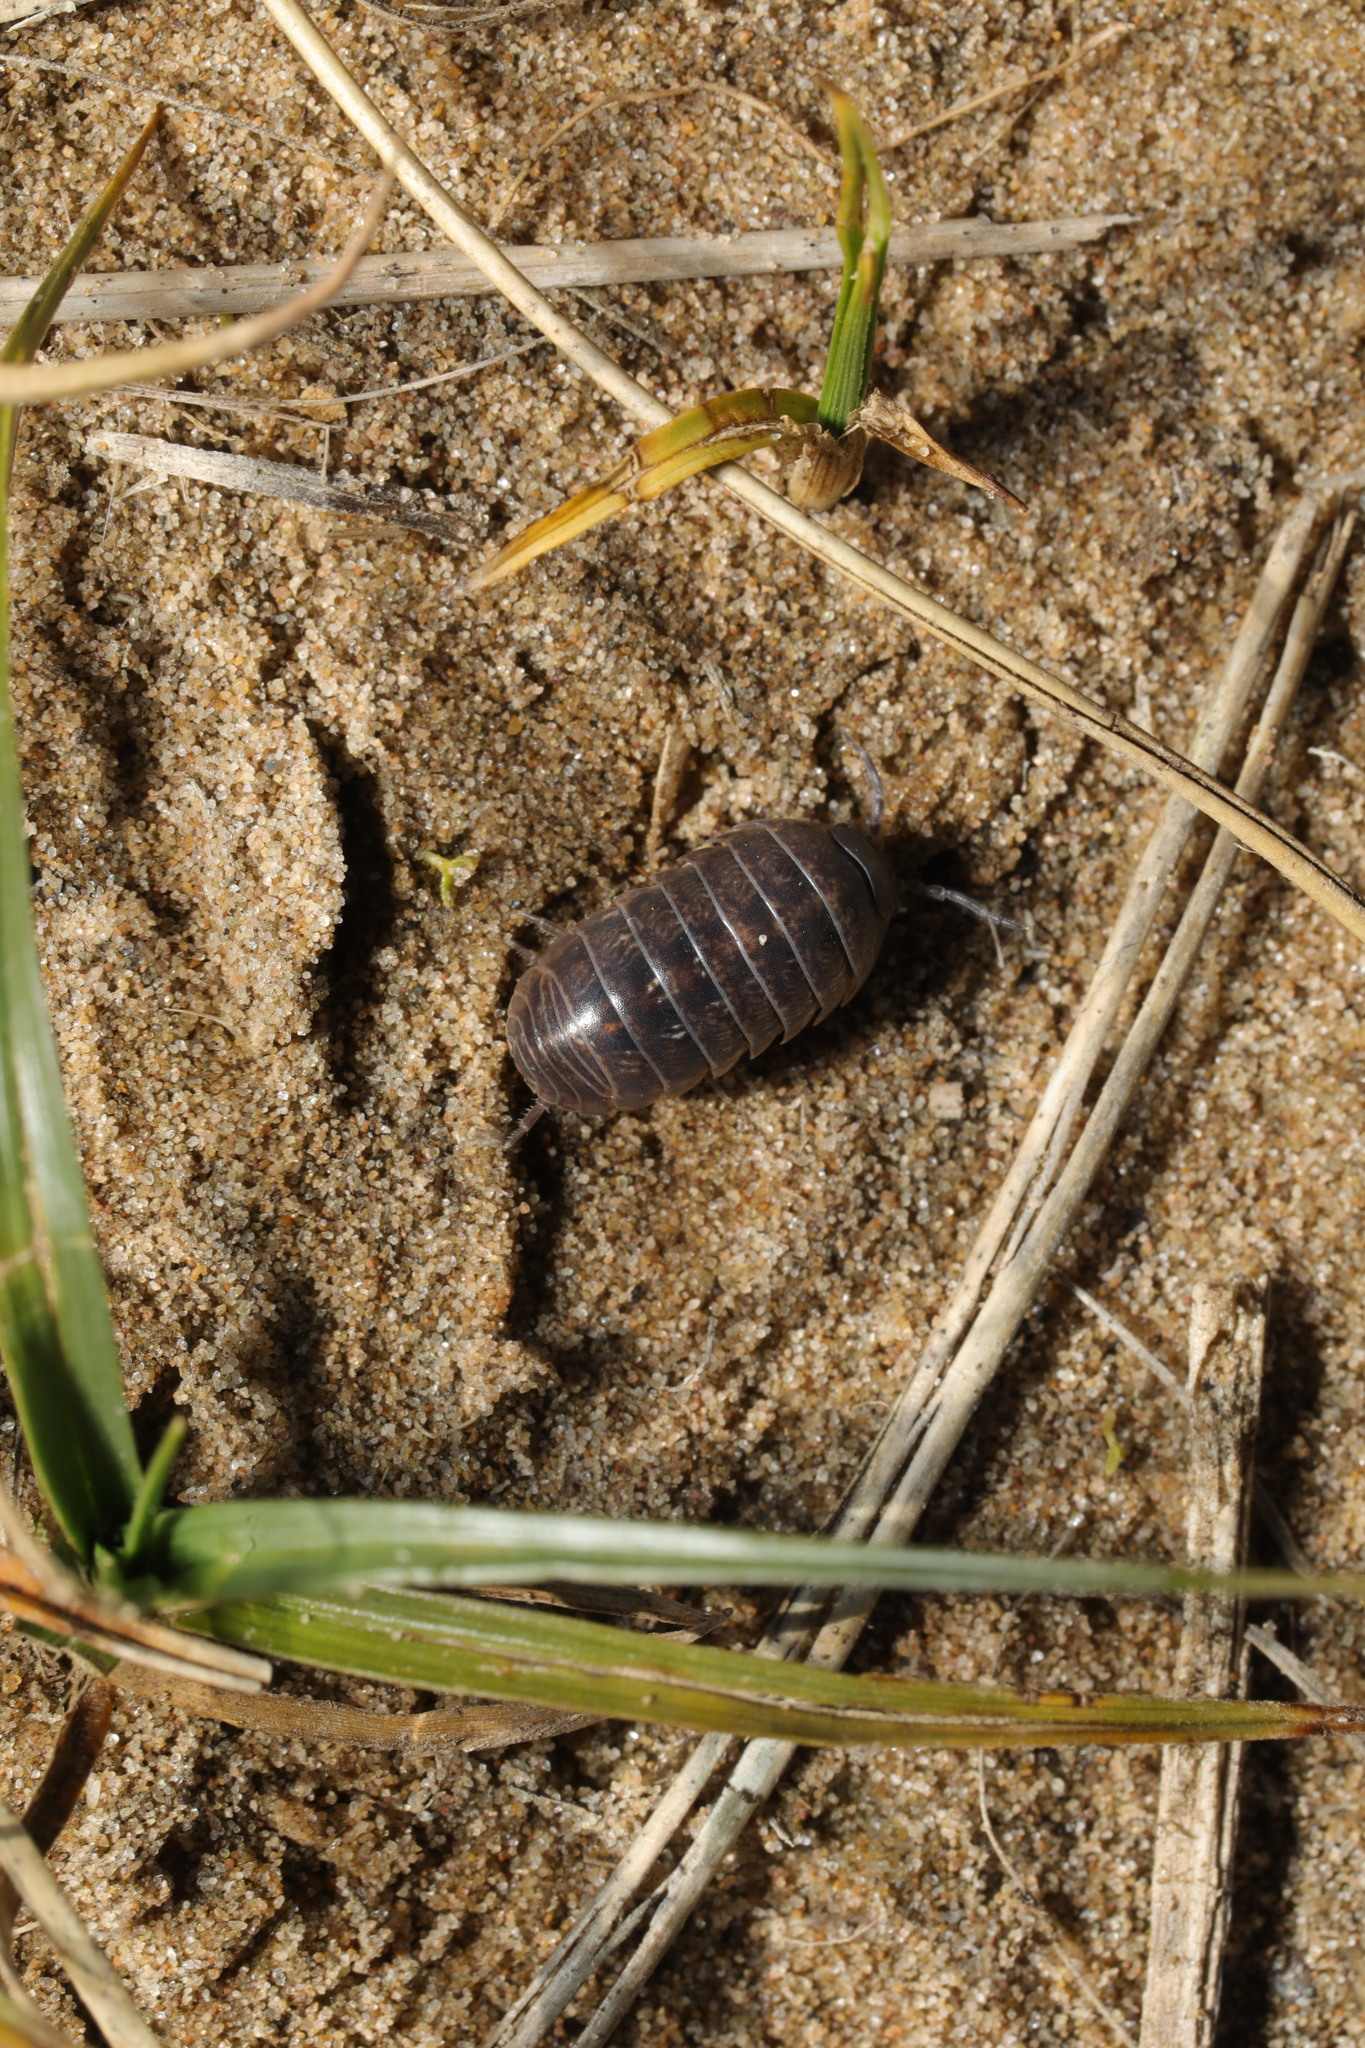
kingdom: Animalia
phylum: Arthropoda
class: Malacostraca
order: Isopoda
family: Armadillidiidae
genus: Armadillidium
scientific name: Armadillidium vulgare
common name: Common pill woodlouse
